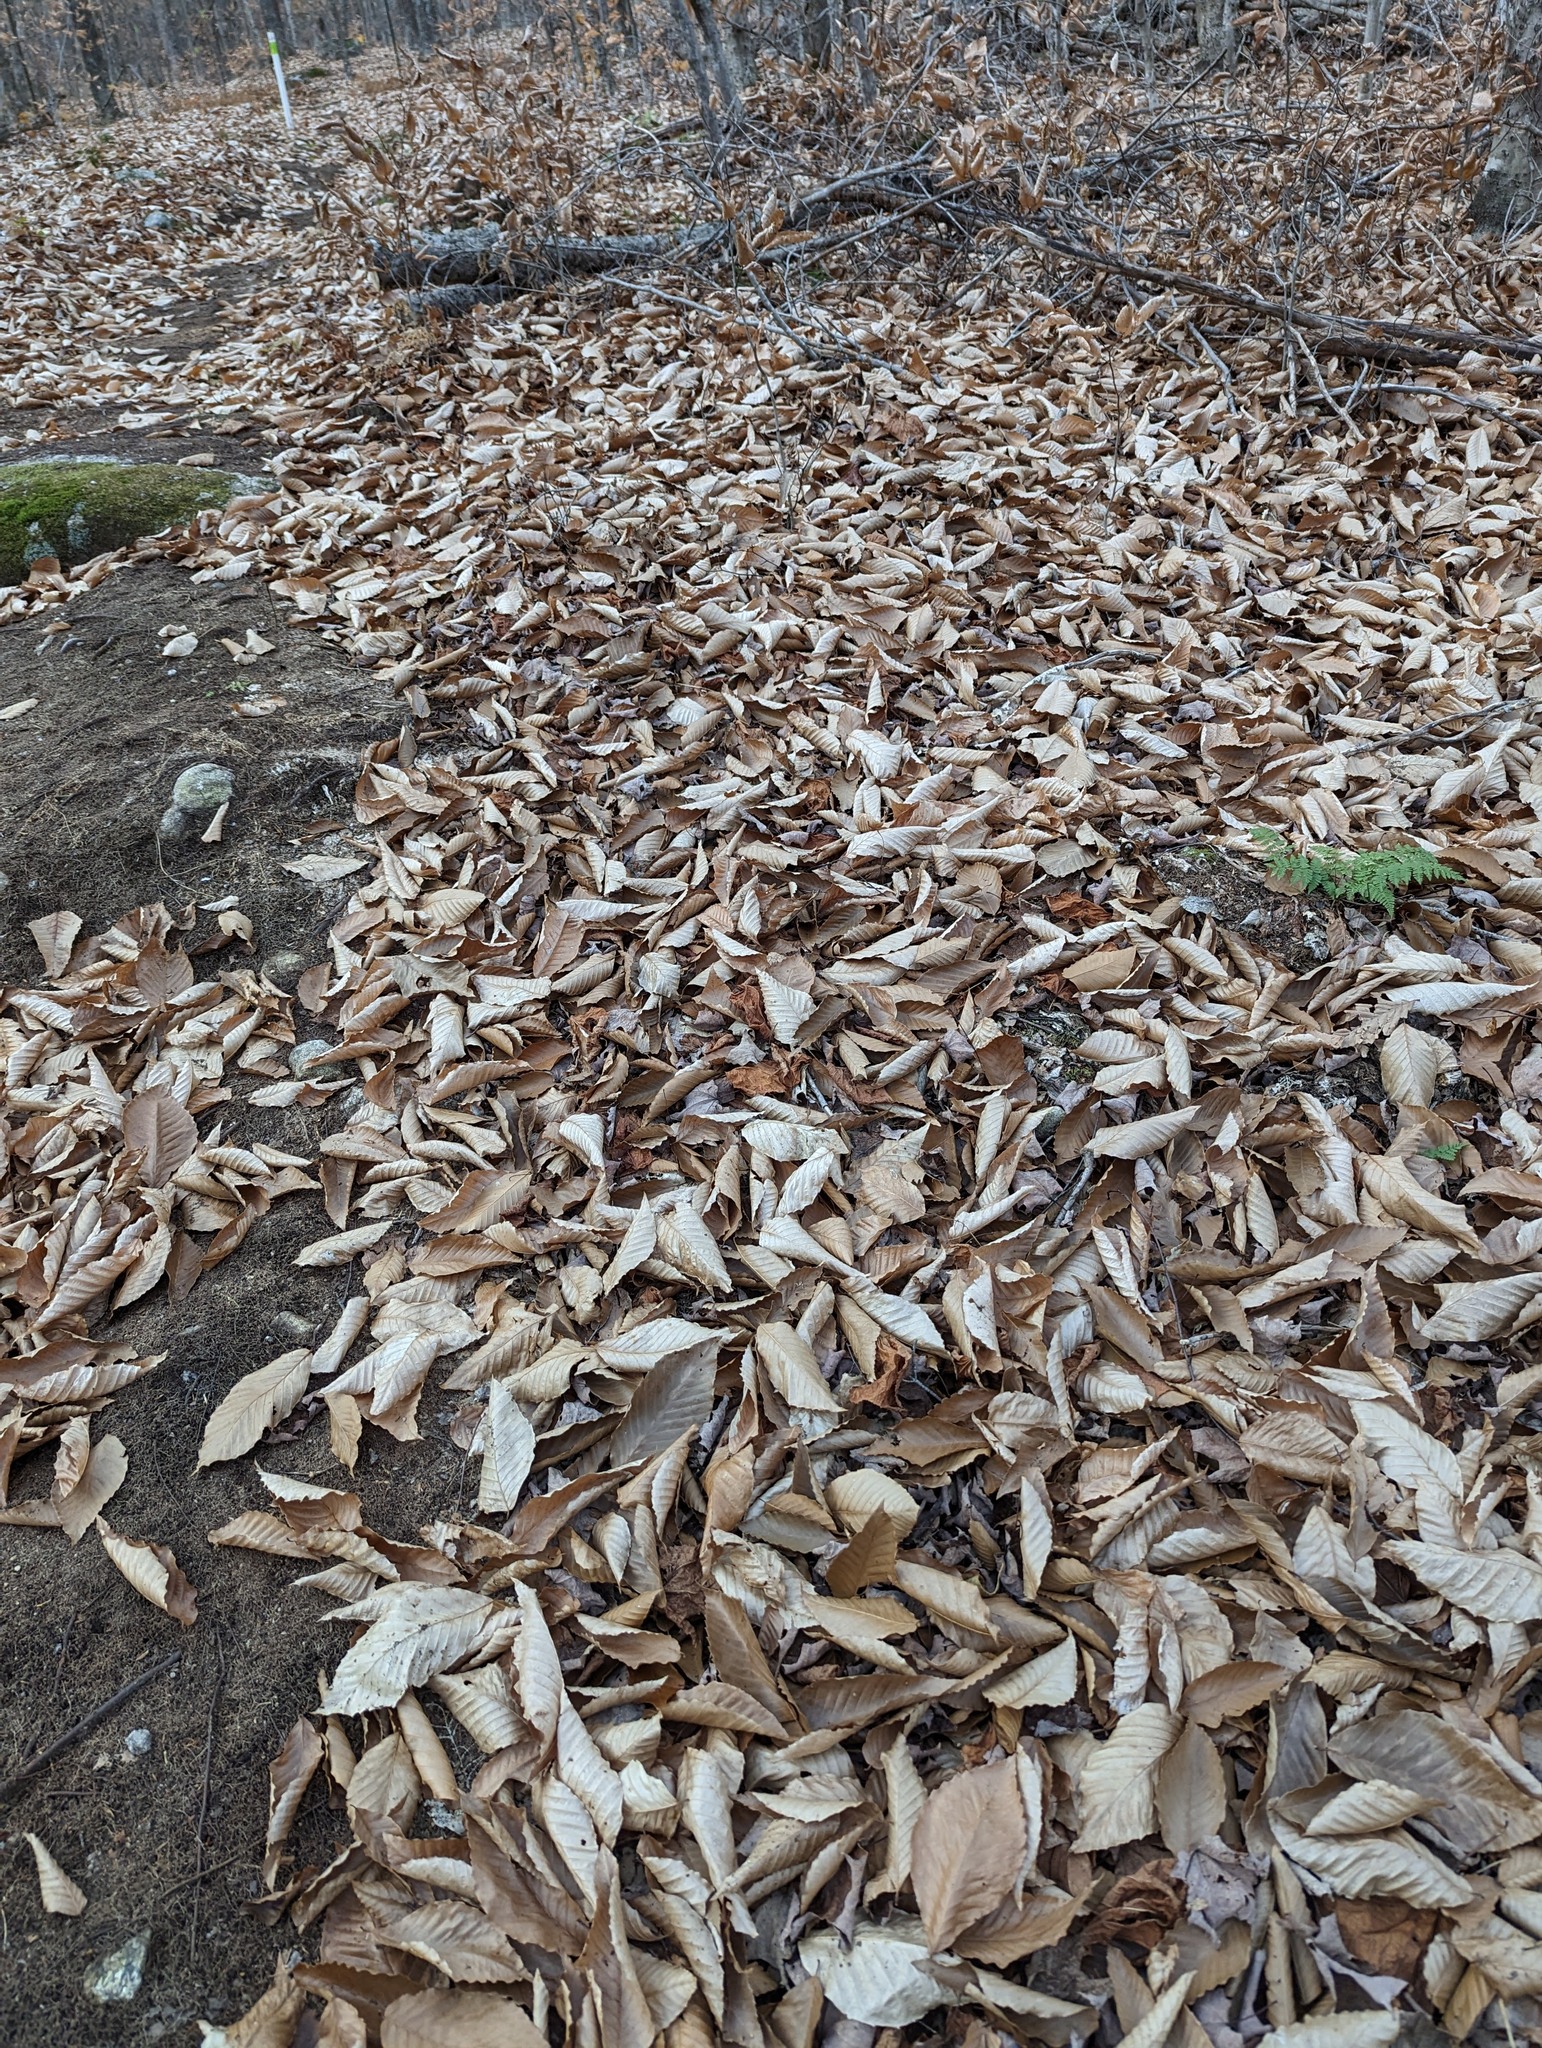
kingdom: Plantae
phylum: Tracheophyta
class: Magnoliopsida
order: Fagales
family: Fagaceae
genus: Fagus
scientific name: Fagus grandifolia
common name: American beech
